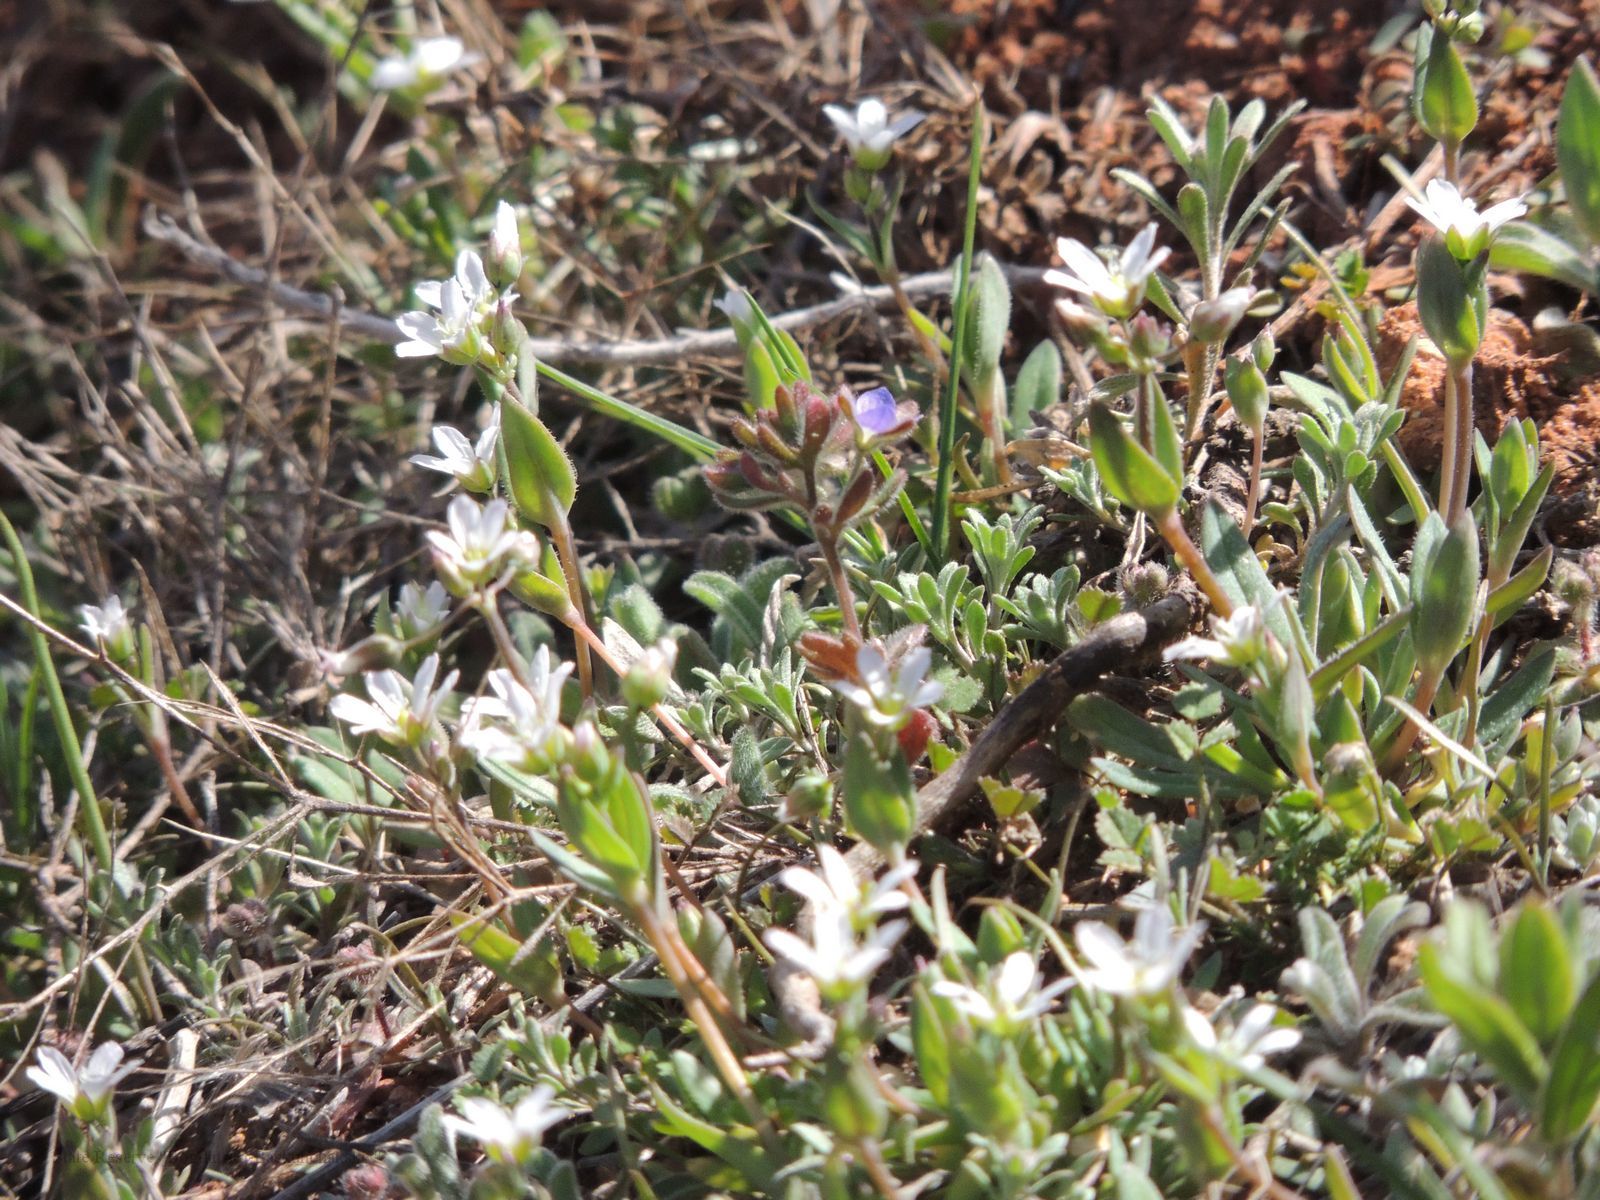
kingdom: Plantae
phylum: Tracheophyta
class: Magnoliopsida
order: Caryophyllales
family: Caryophyllaceae
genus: Holosteum
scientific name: Holosteum umbellatum
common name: Jagged chickweed
